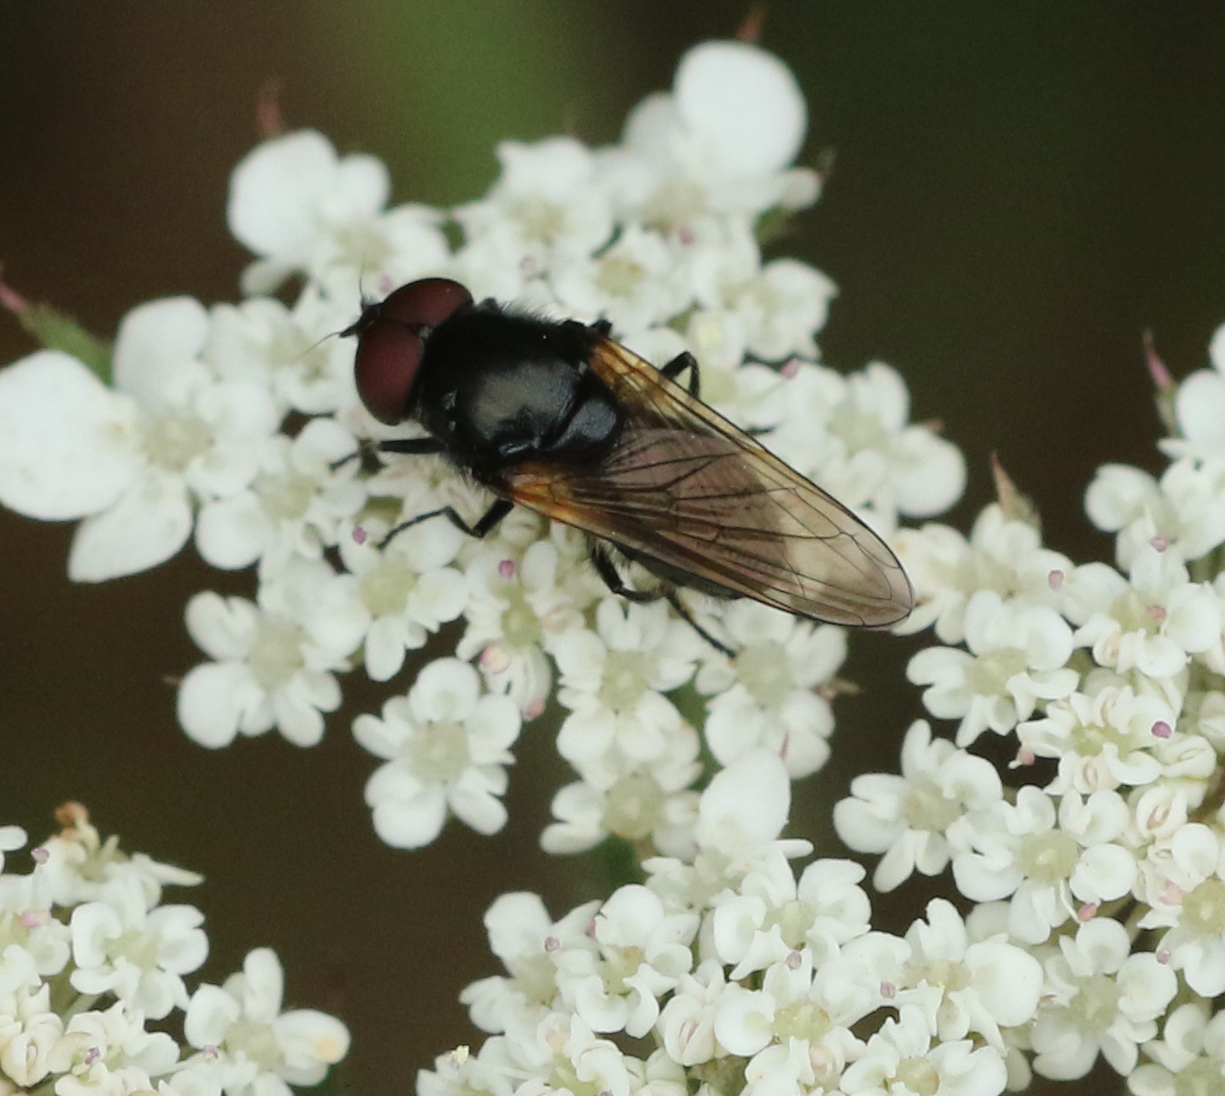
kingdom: Animalia
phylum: Arthropoda
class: Insecta
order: Diptera
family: Syrphidae
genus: Cheilosia
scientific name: Cheilosia impressa
